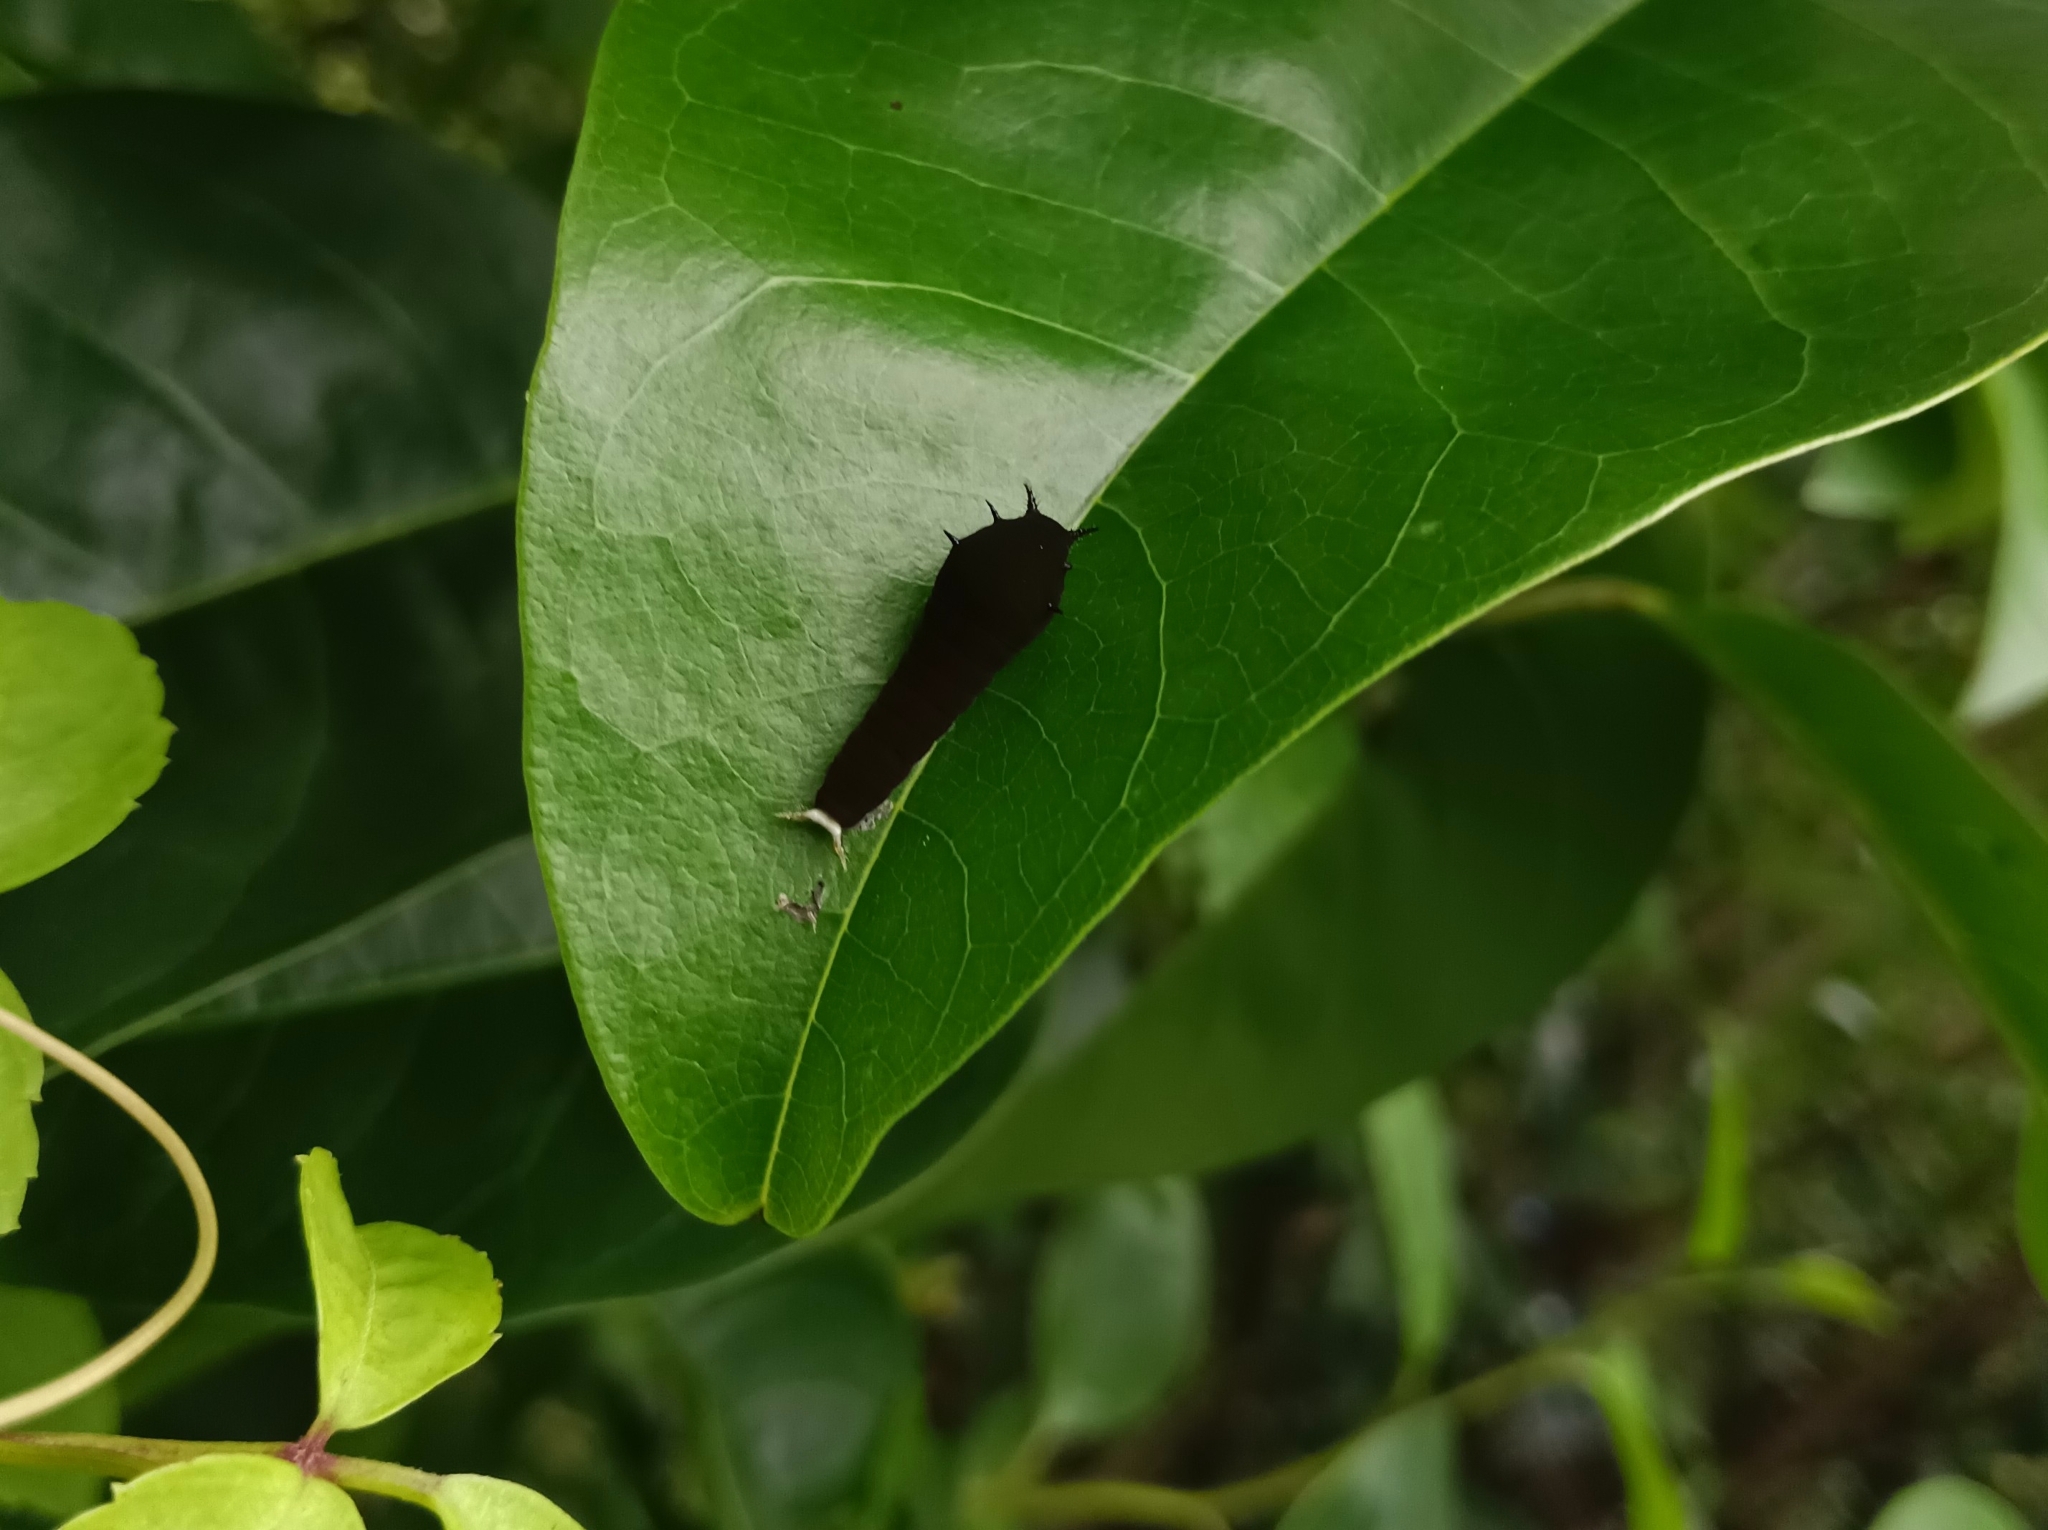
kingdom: Animalia
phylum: Arthropoda
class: Insecta
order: Lepidoptera
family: Papilionidae
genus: Graphium
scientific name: Graphium doson
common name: Common jay
